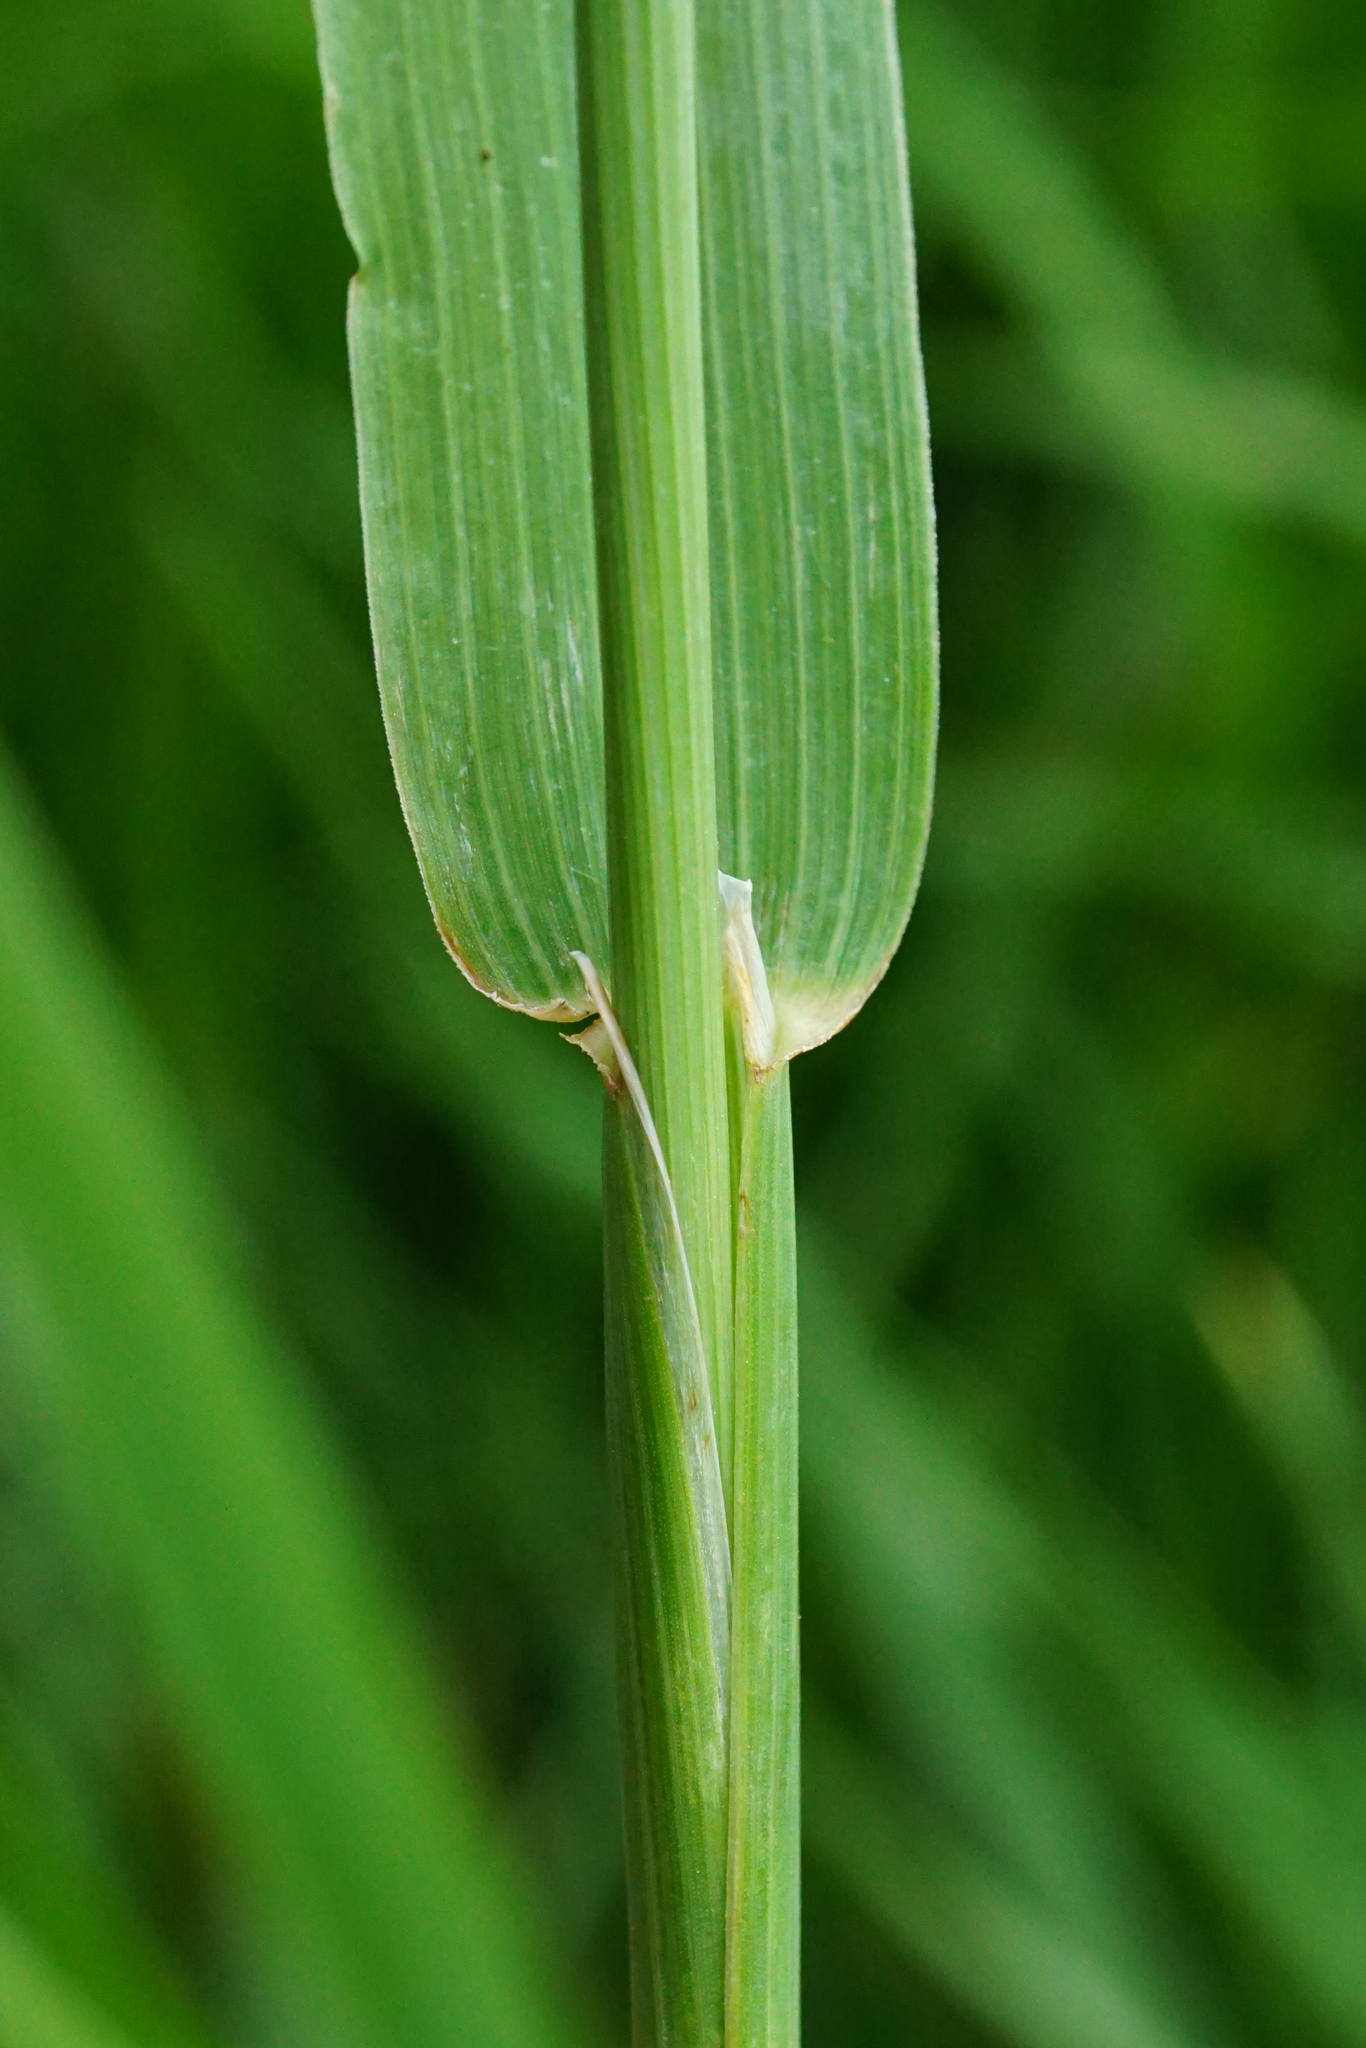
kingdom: Plantae
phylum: Tracheophyta
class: Liliopsida
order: Poales
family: Poaceae
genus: Phleum
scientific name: Phleum pratense
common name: Timothy grass
